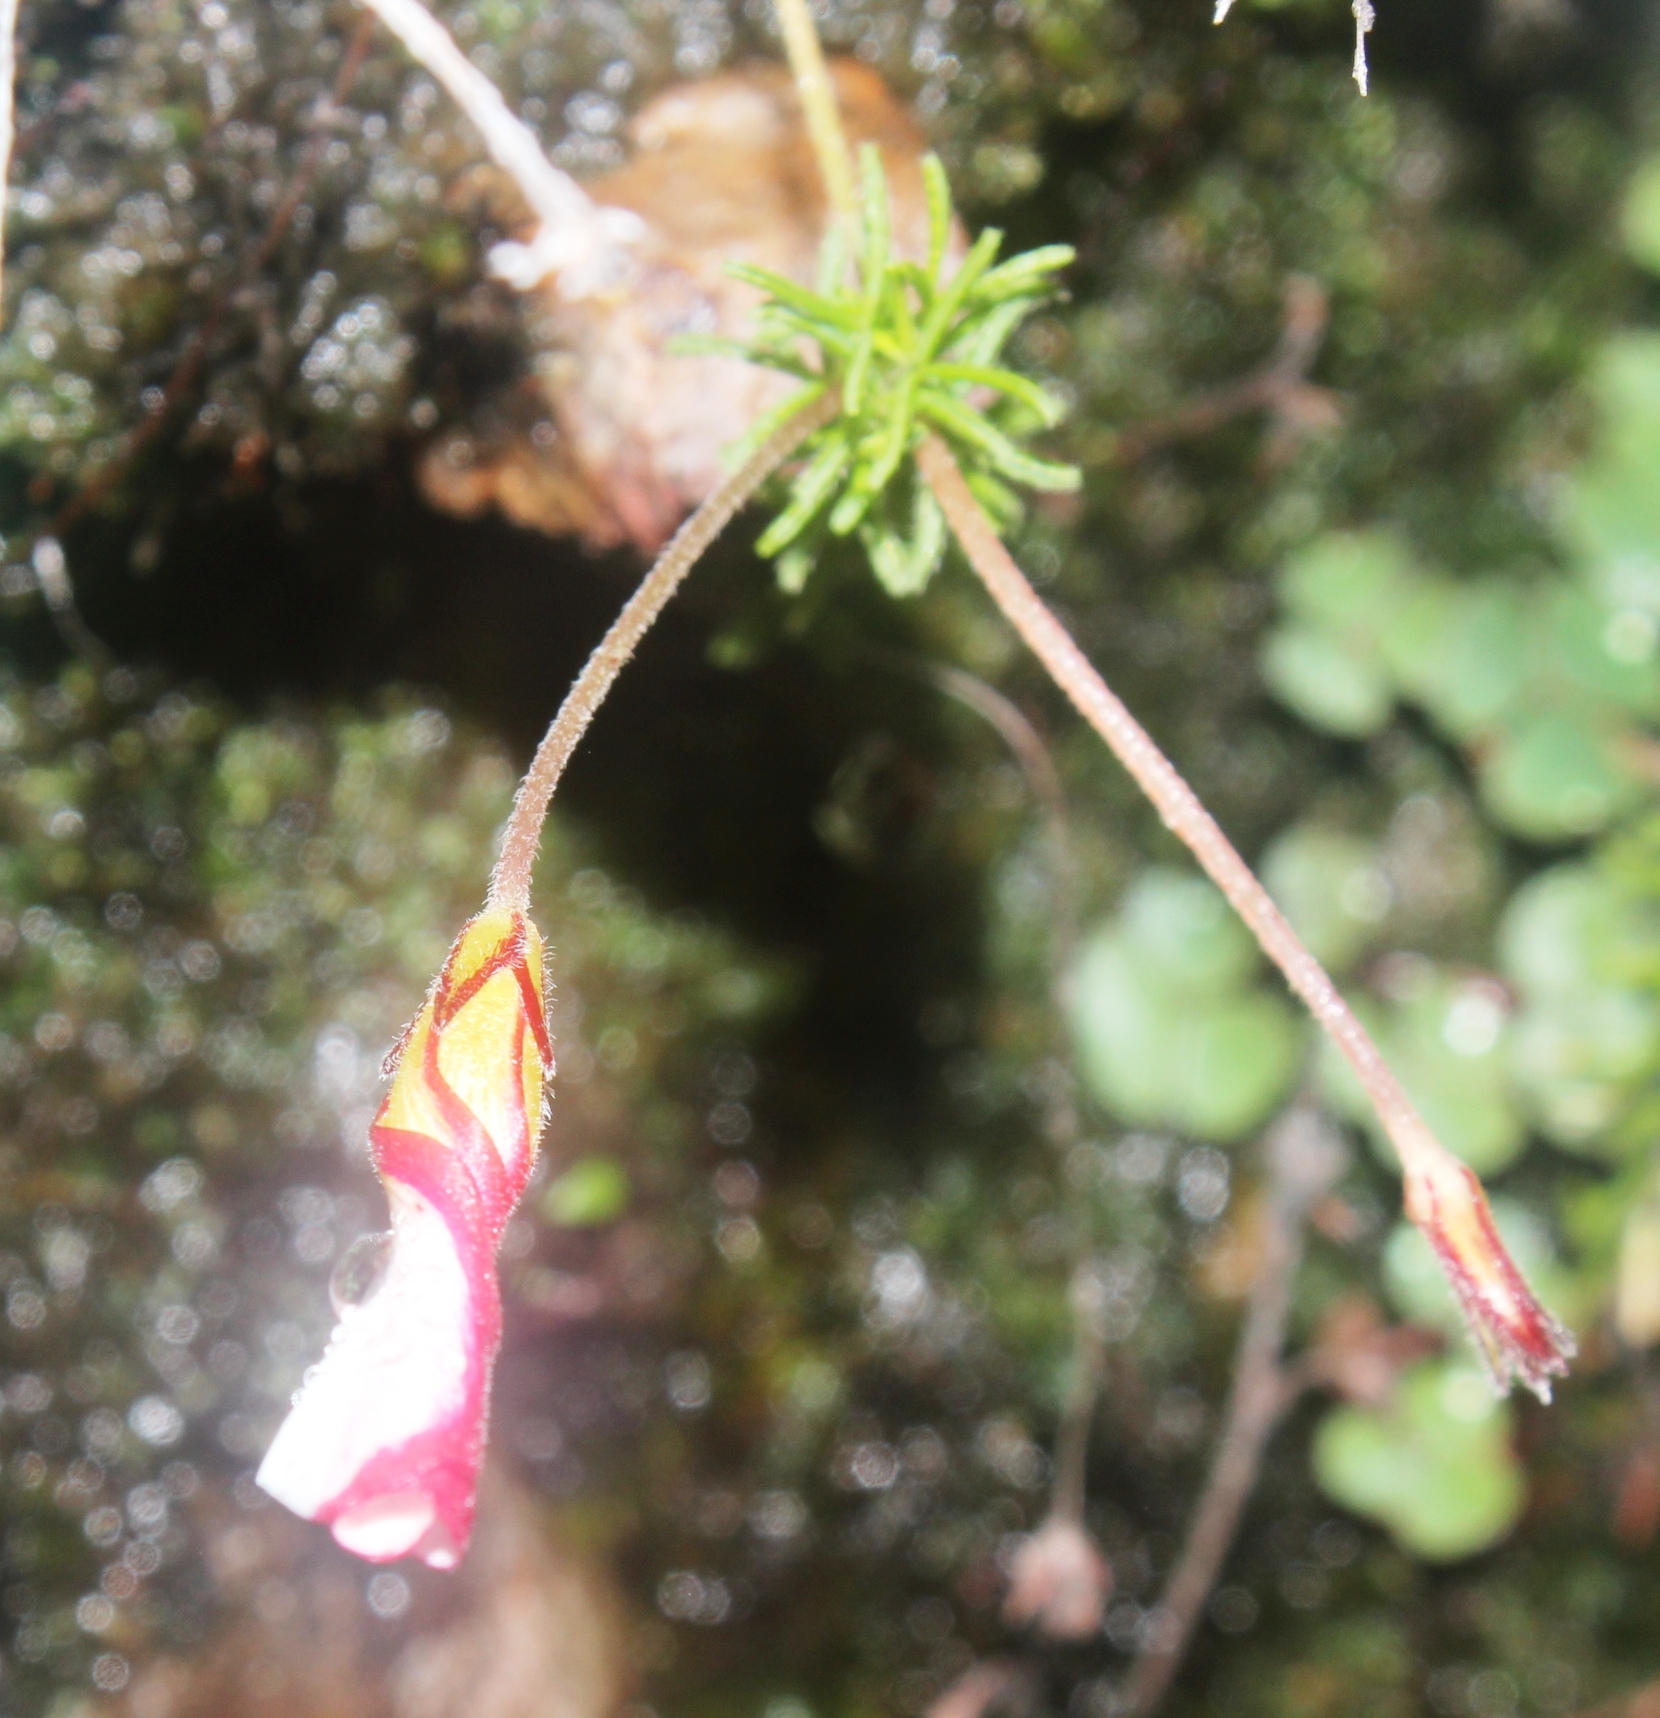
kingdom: Plantae
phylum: Tracheophyta
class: Magnoliopsida
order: Oxalidales
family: Oxalidaceae
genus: Oxalis
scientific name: Oxalis tenuifolia
